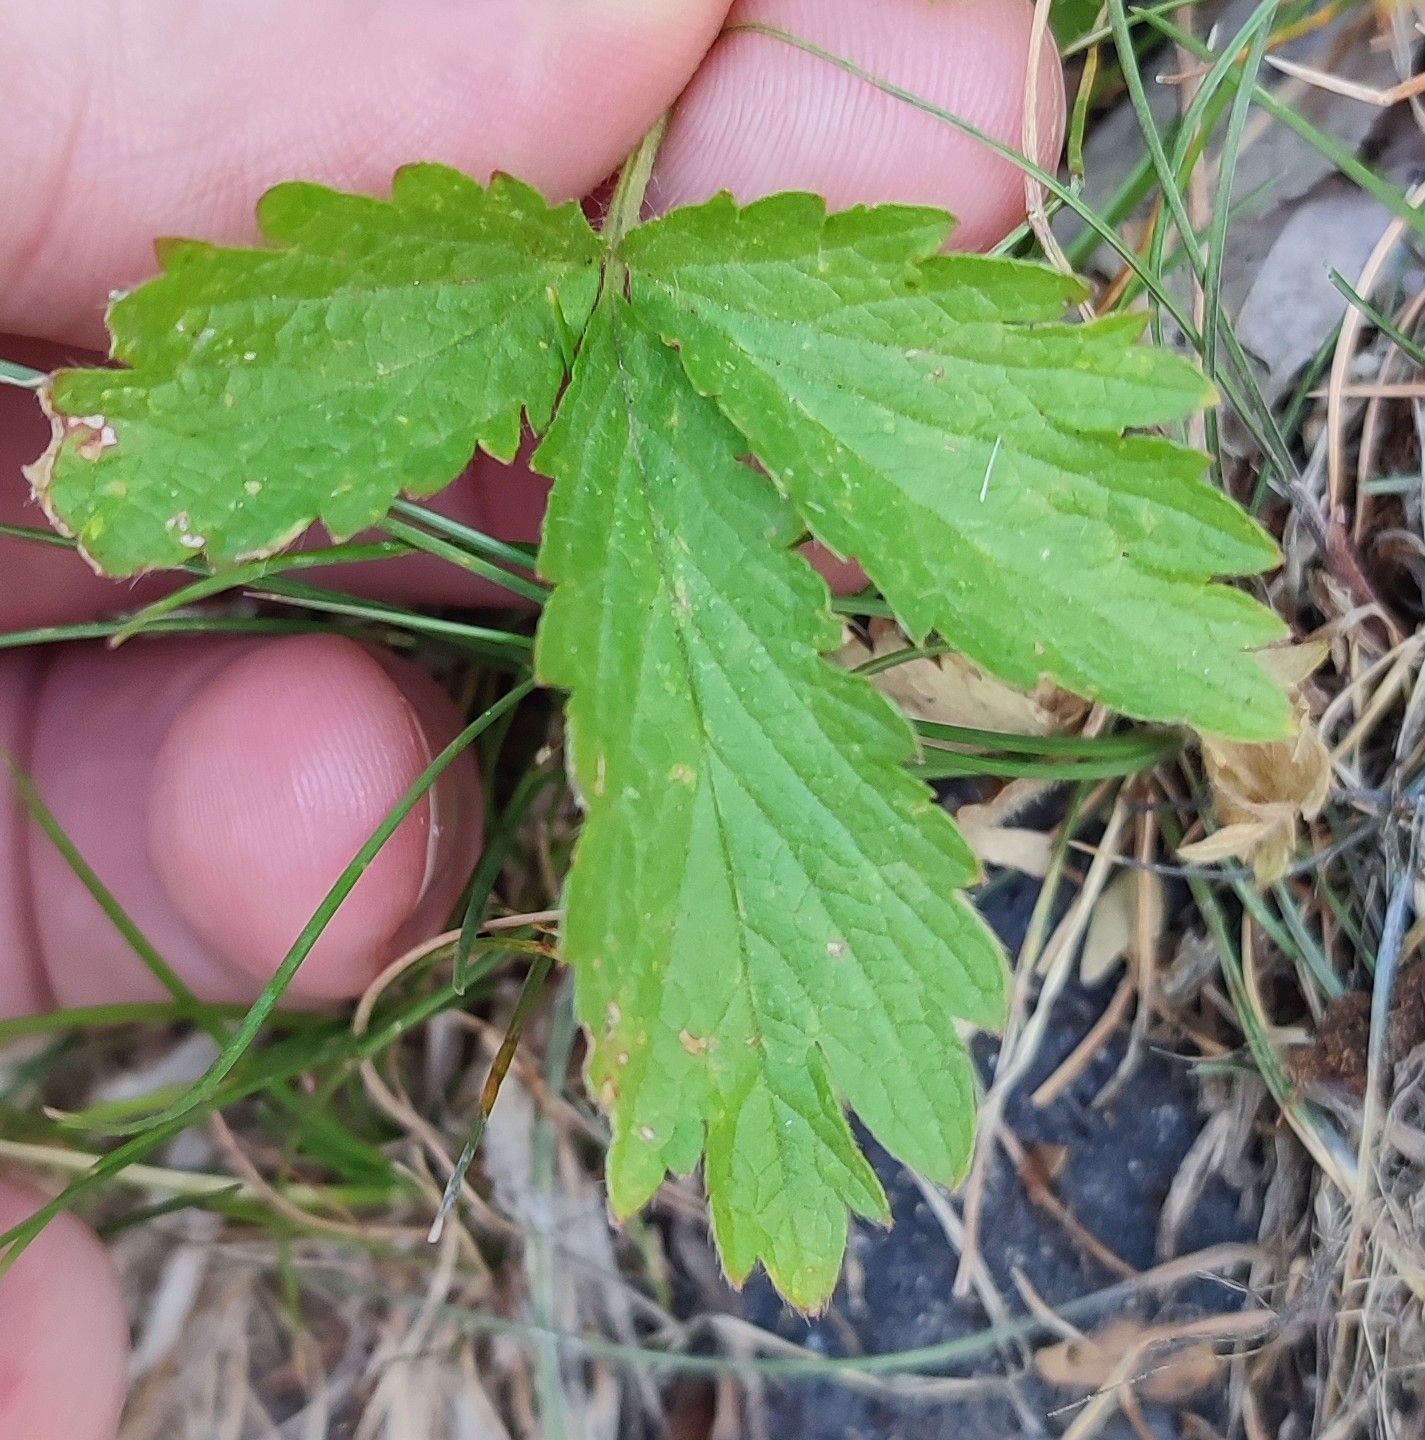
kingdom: Plantae
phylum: Tracheophyta
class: Magnoliopsida
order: Rosales
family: Rosaceae
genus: Potentilla
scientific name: Potentilla norvegica
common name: Ternate-leaved cinquefoil
